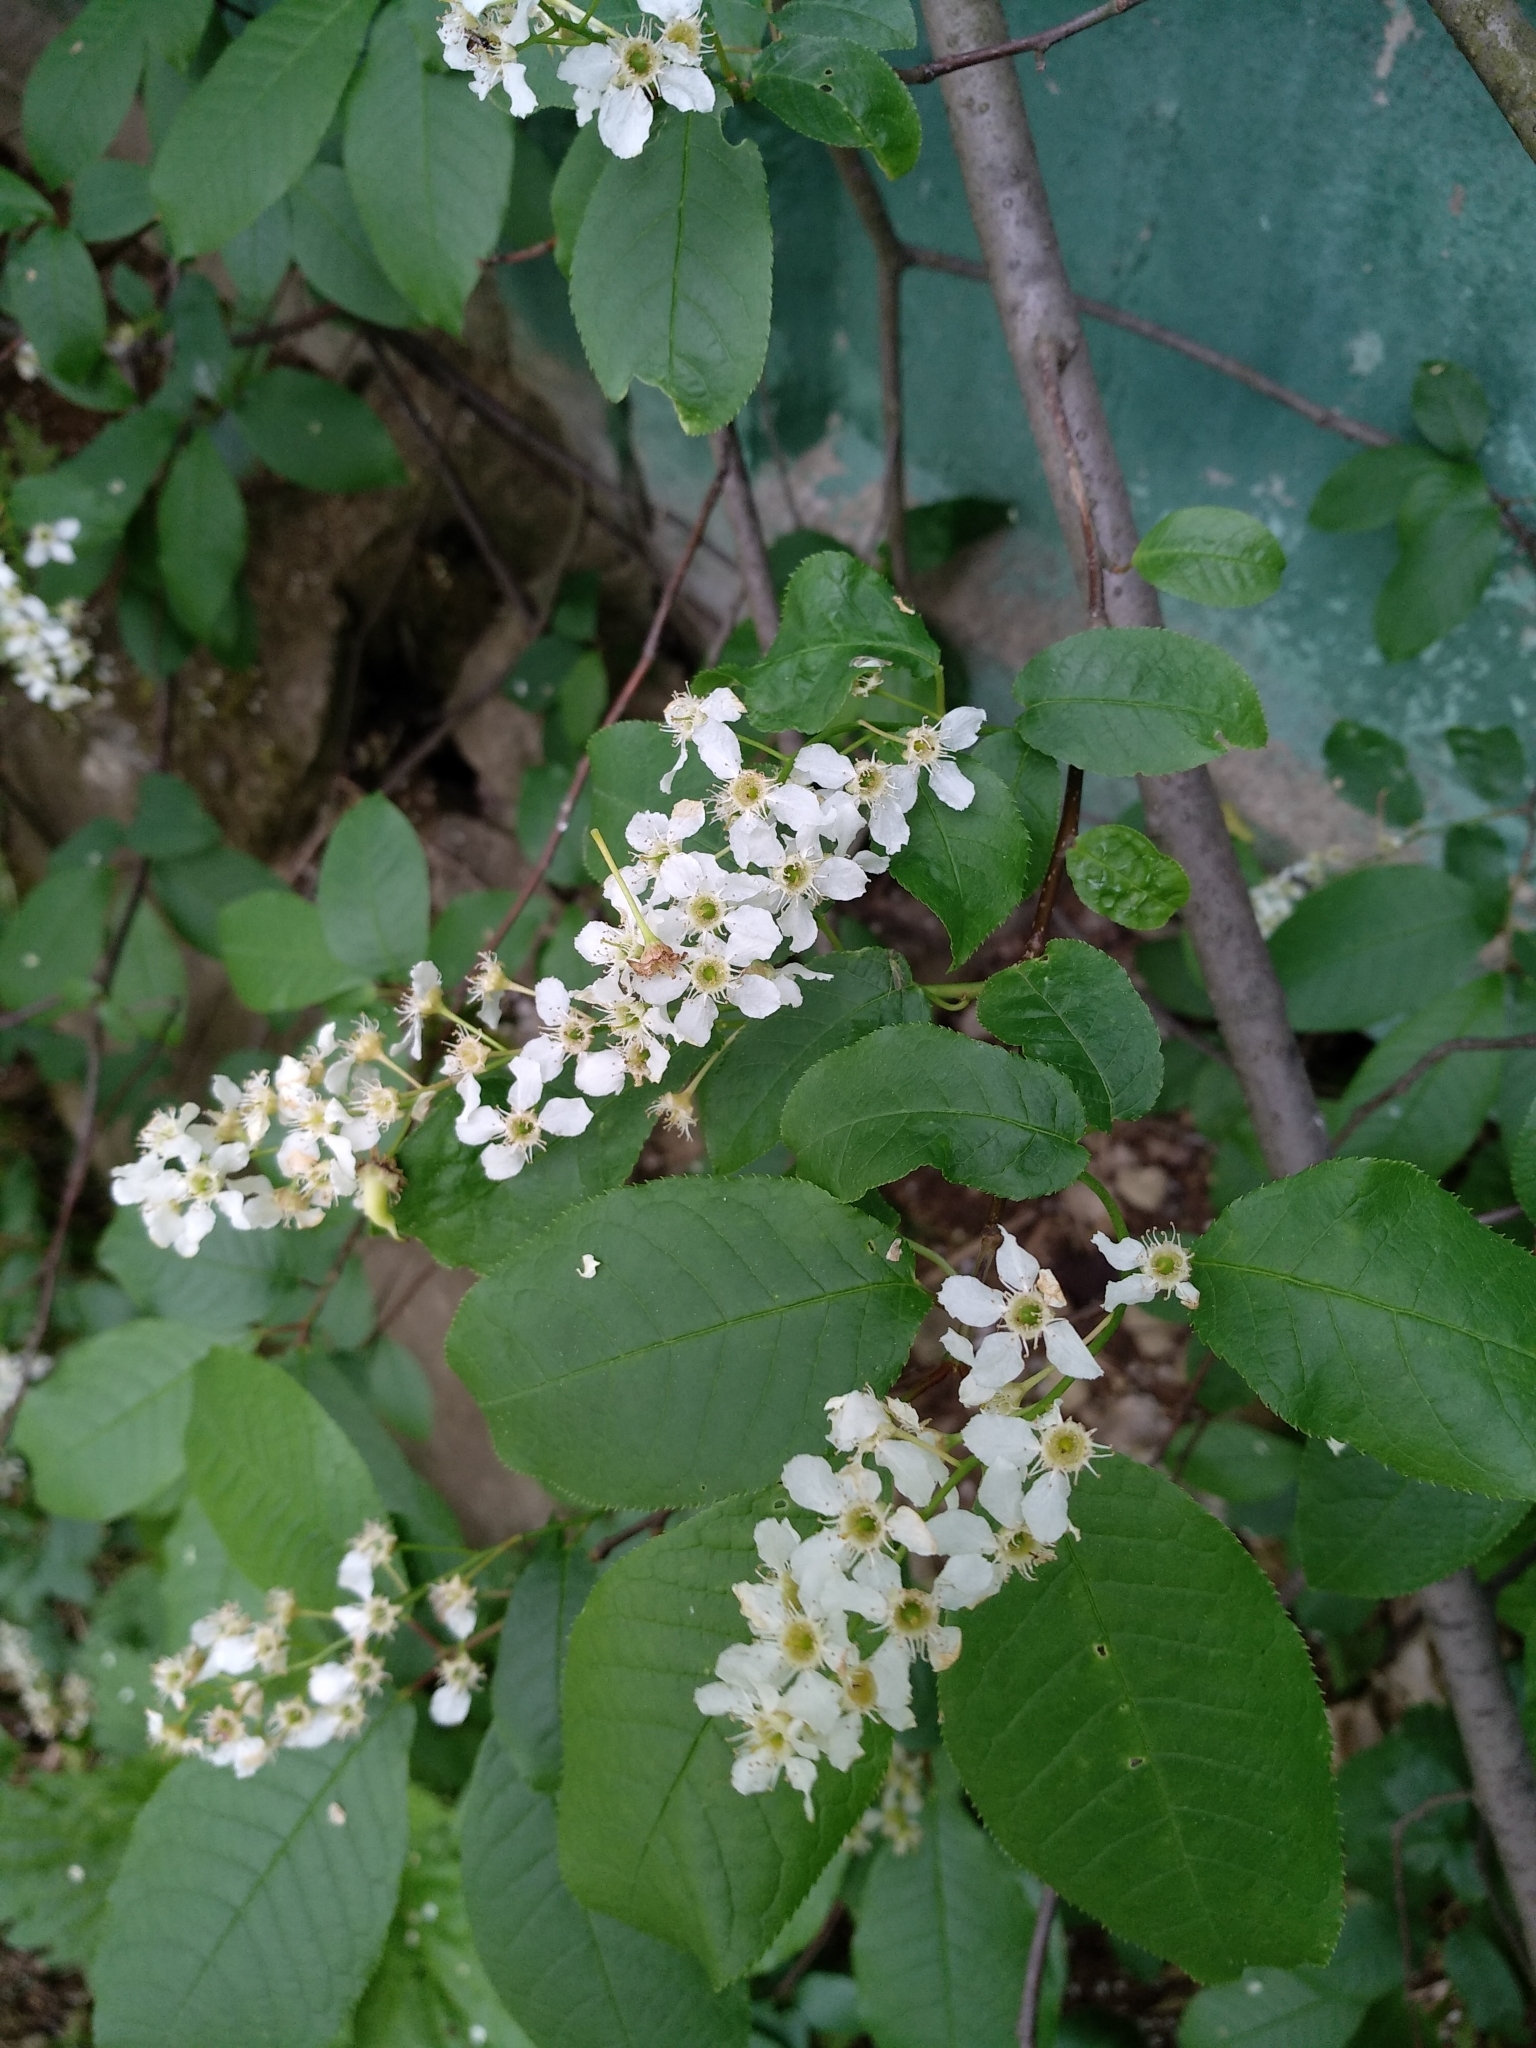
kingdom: Plantae
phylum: Tracheophyta
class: Magnoliopsida
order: Rosales
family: Rosaceae
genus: Prunus
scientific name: Prunus padus
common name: Bird cherry
